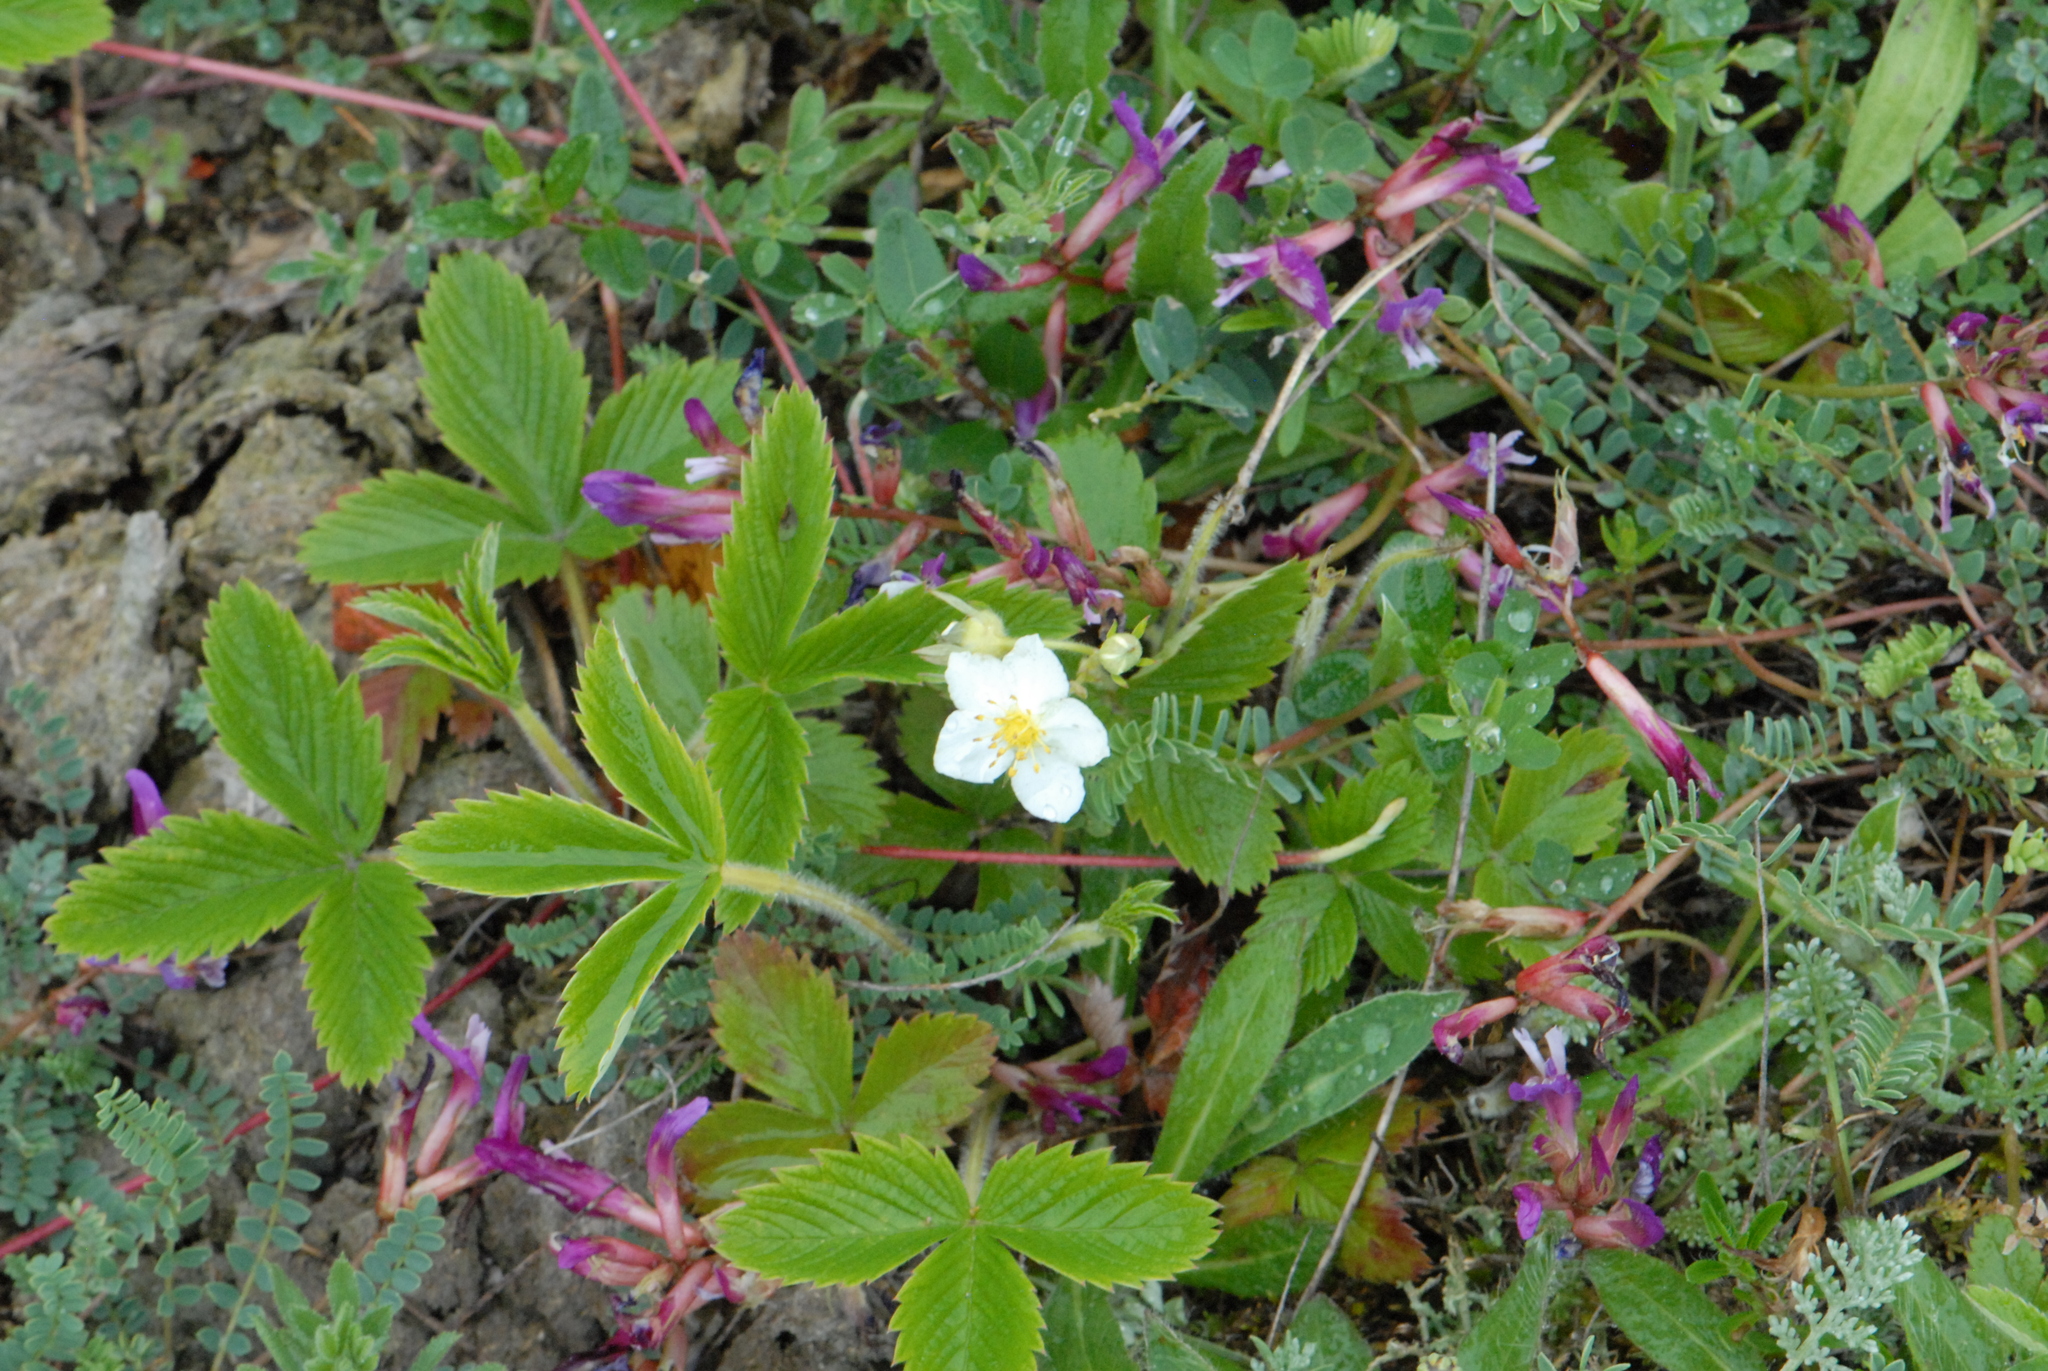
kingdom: Plantae
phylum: Tracheophyta
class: Magnoliopsida
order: Rosales
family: Rosaceae
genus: Fragaria
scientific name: Fragaria viridis
